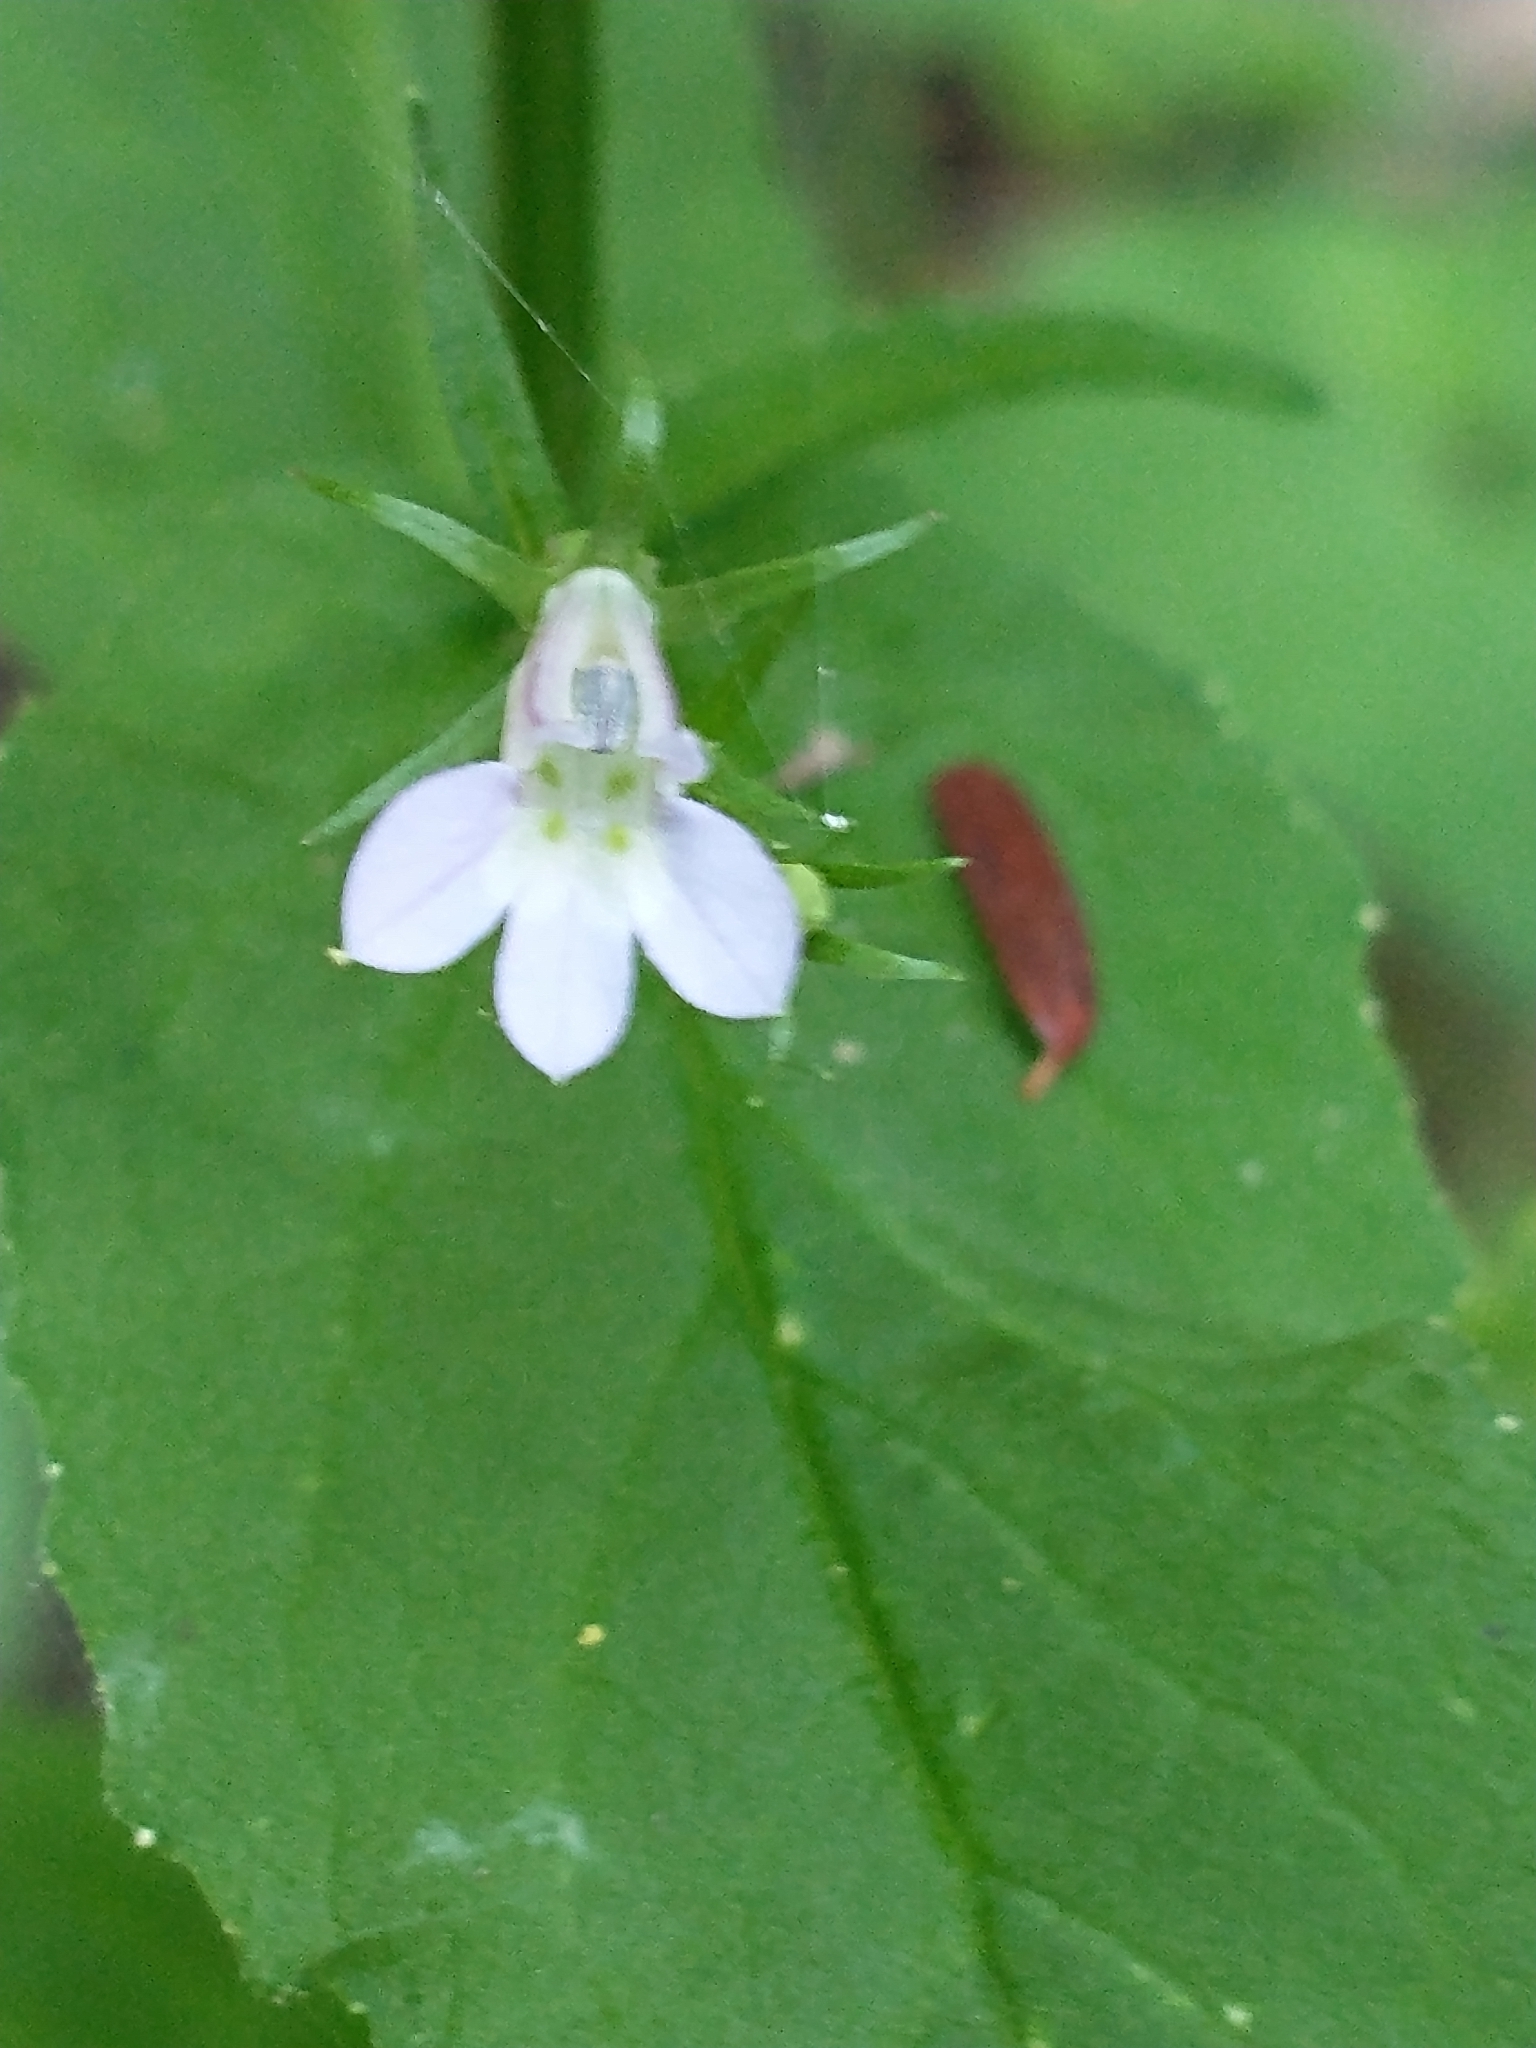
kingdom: Plantae
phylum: Tracheophyta
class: Magnoliopsida
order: Asterales
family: Campanulaceae
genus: Lobelia
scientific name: Lobelia inflata
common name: Indian tobacco
